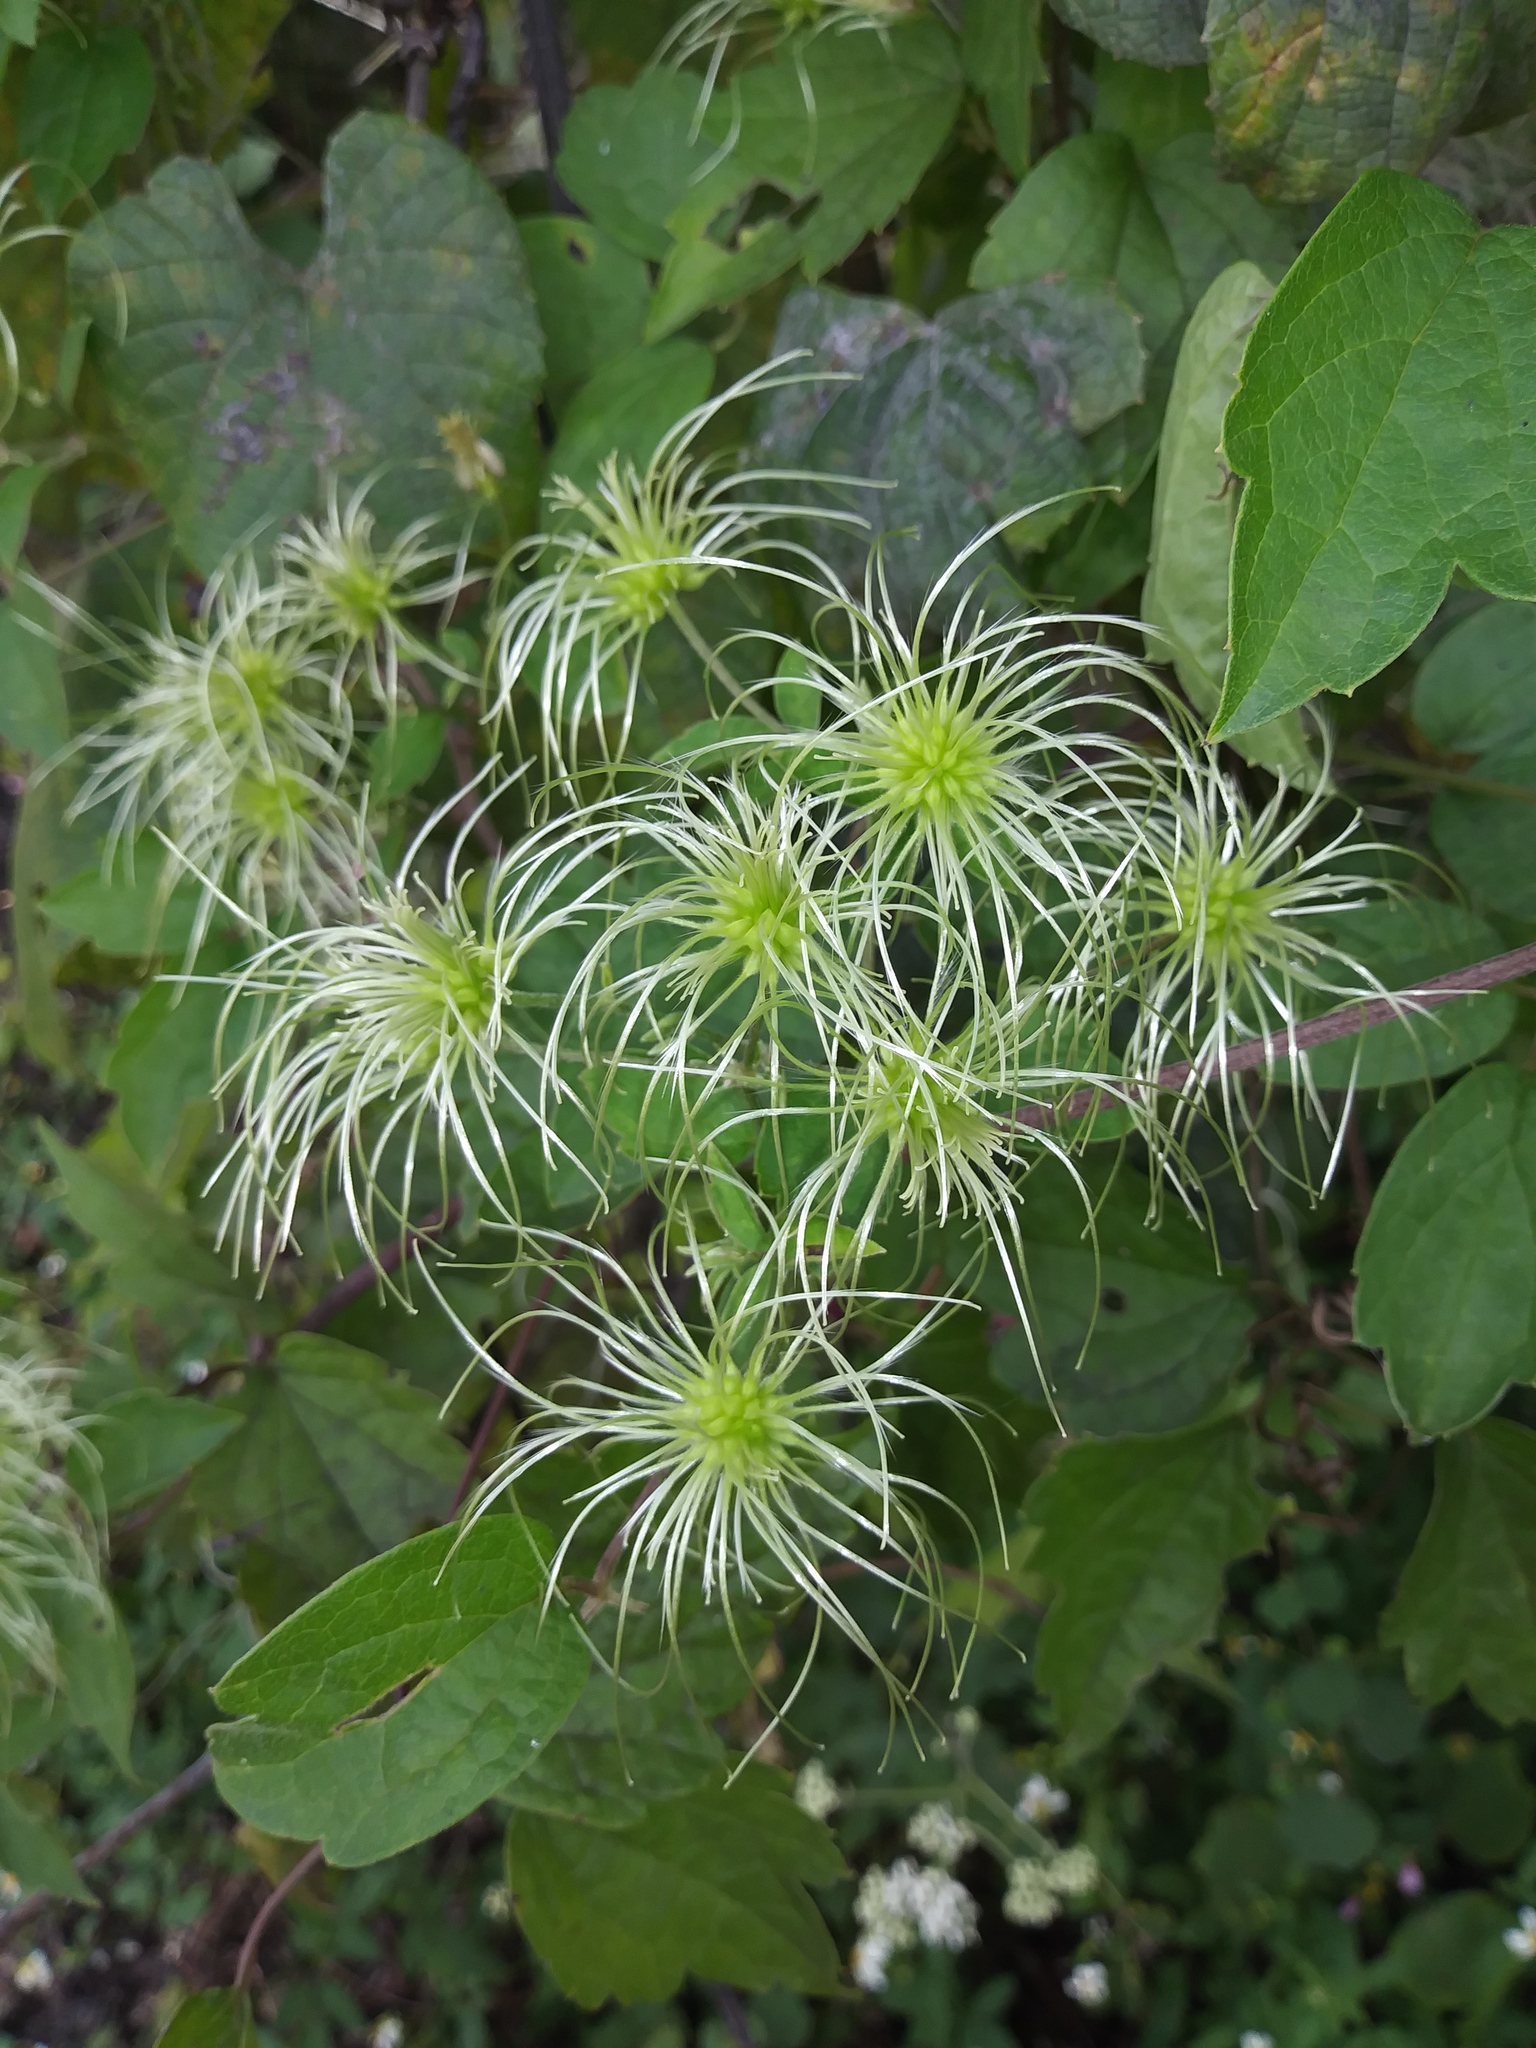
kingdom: Plantae
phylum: Tracheophyta
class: Magnoliopsida
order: Ranunculales
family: Ranunculaceae
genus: Clematis
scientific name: Clematis virginiana
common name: Virgin's-bower
